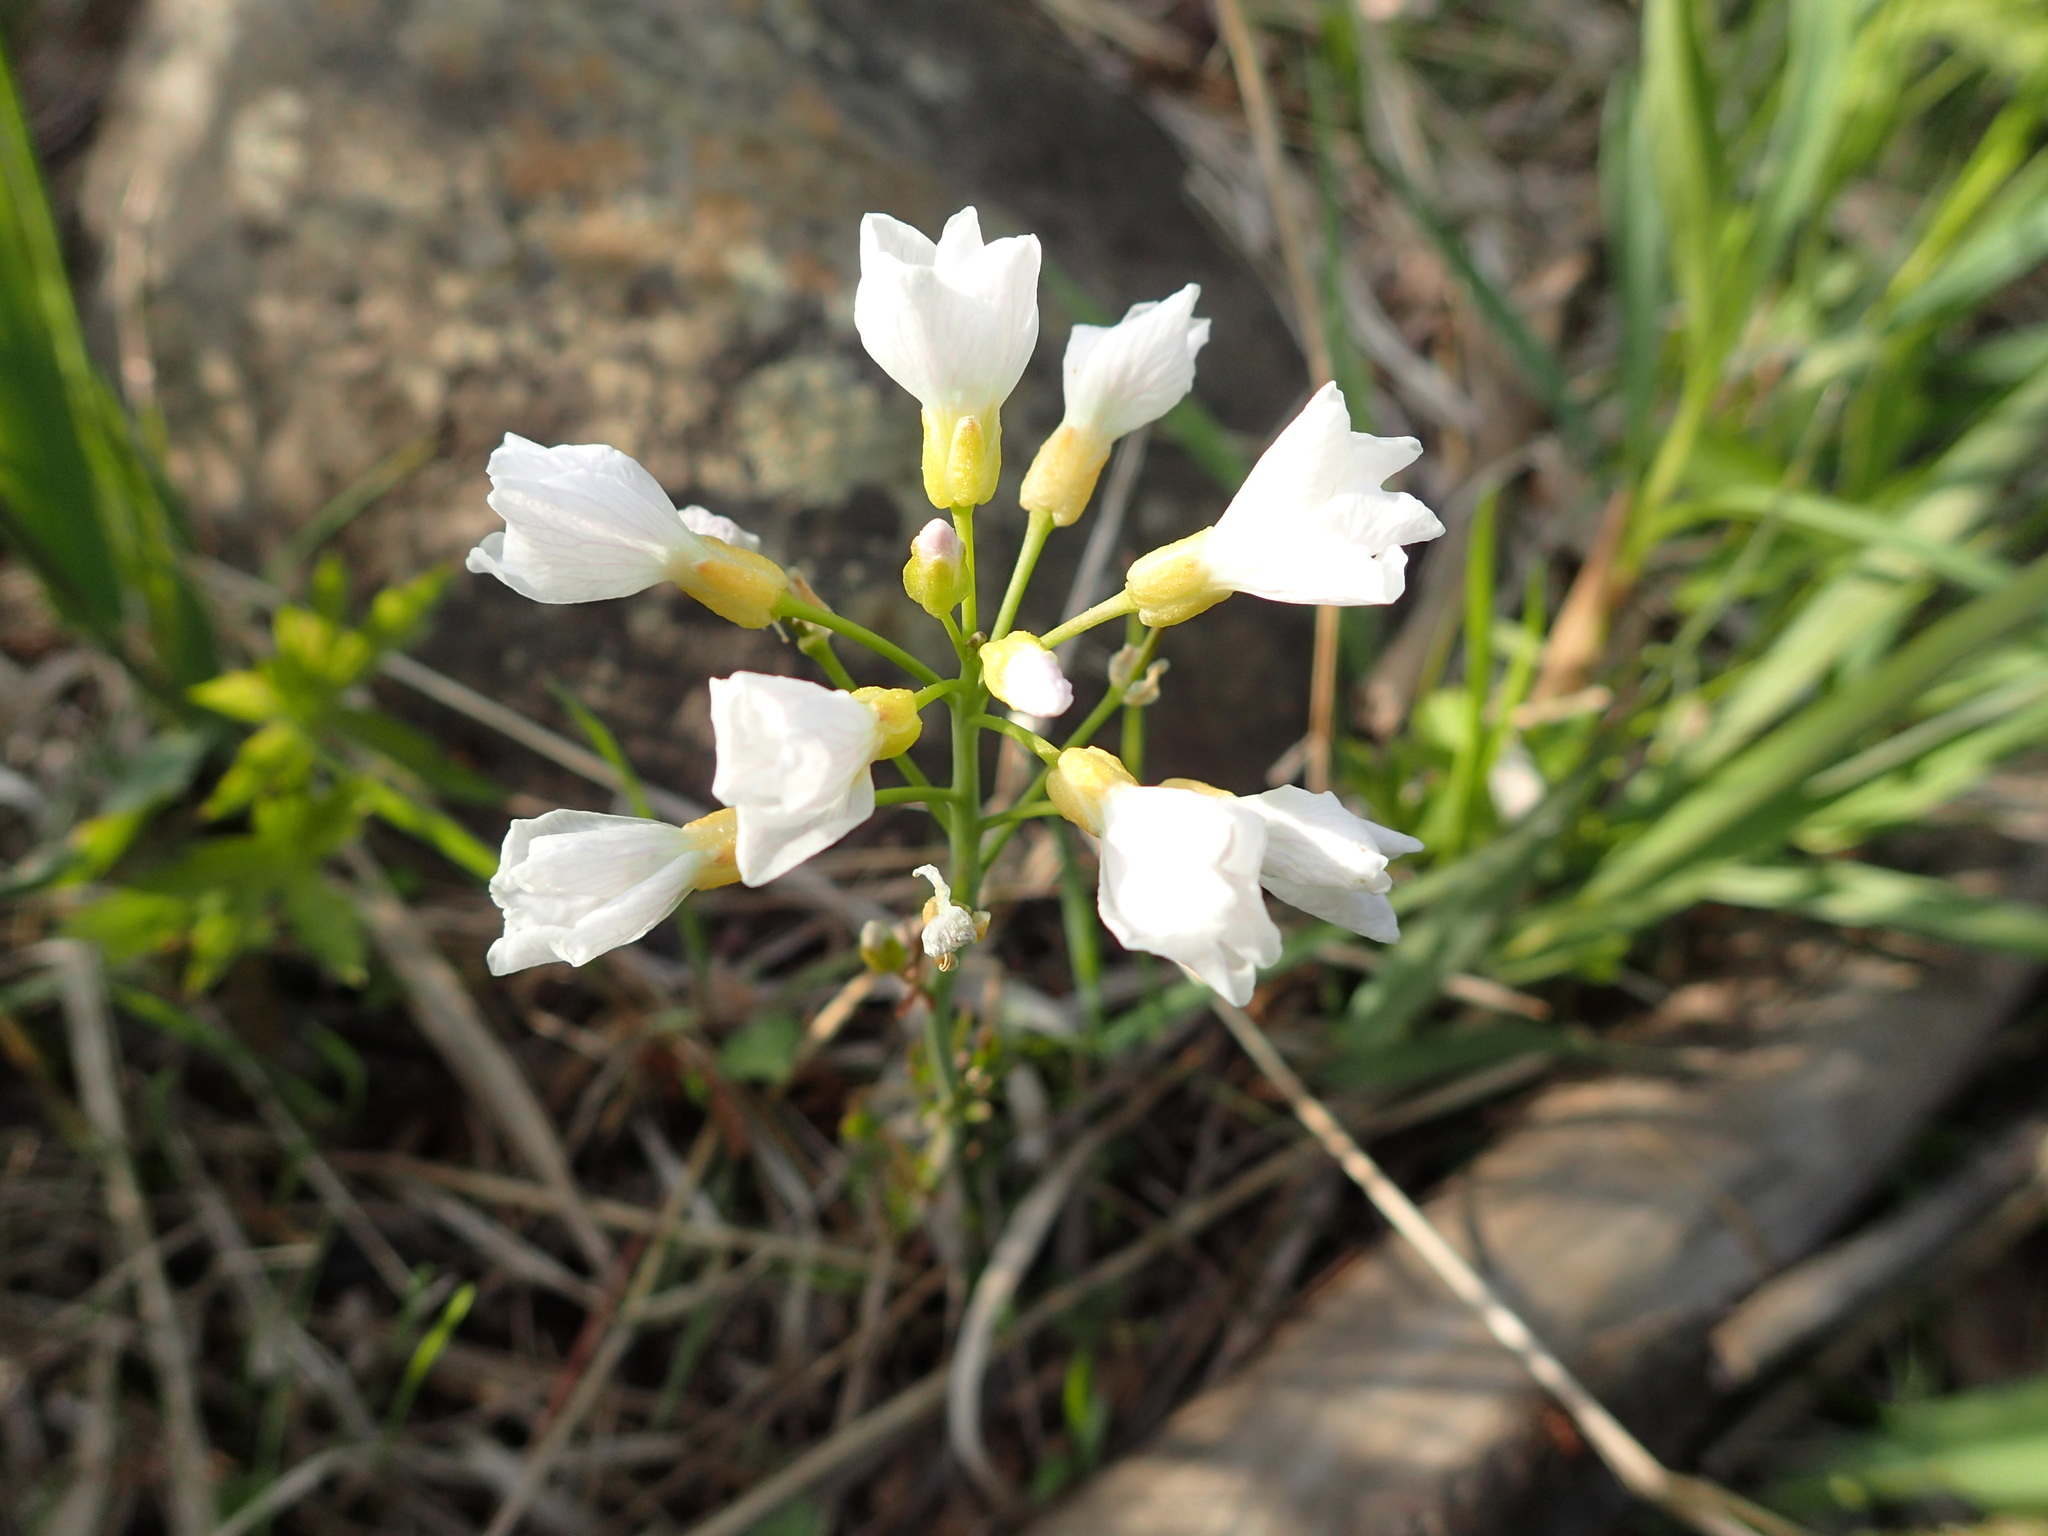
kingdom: Plantae
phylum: Tracheophyta
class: Magnoliopsida
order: Brassicales
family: Brassicaceae
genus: Cardamine
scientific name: Cardamine pratensis
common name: Cuckoo flower
